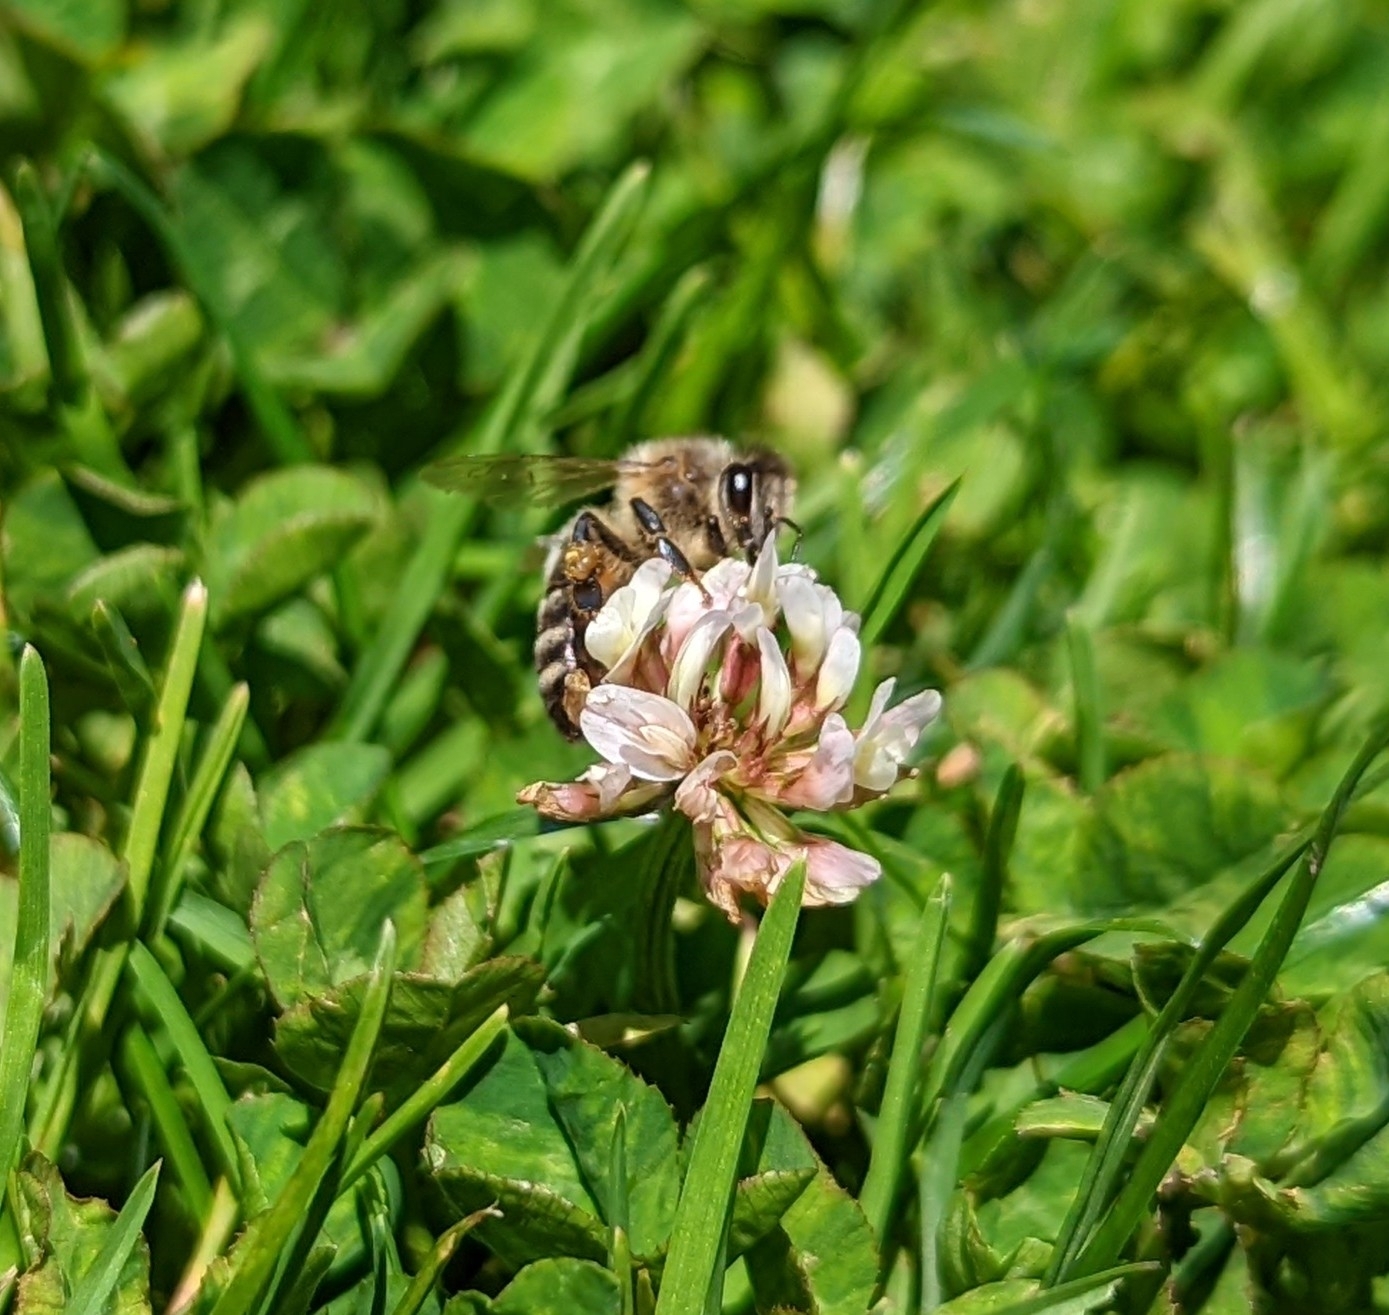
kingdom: Animalia
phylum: Arthropoda
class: Insecta
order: Hymenoptera
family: Apidae
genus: Apis
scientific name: Apis mellifera
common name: Honey bee
